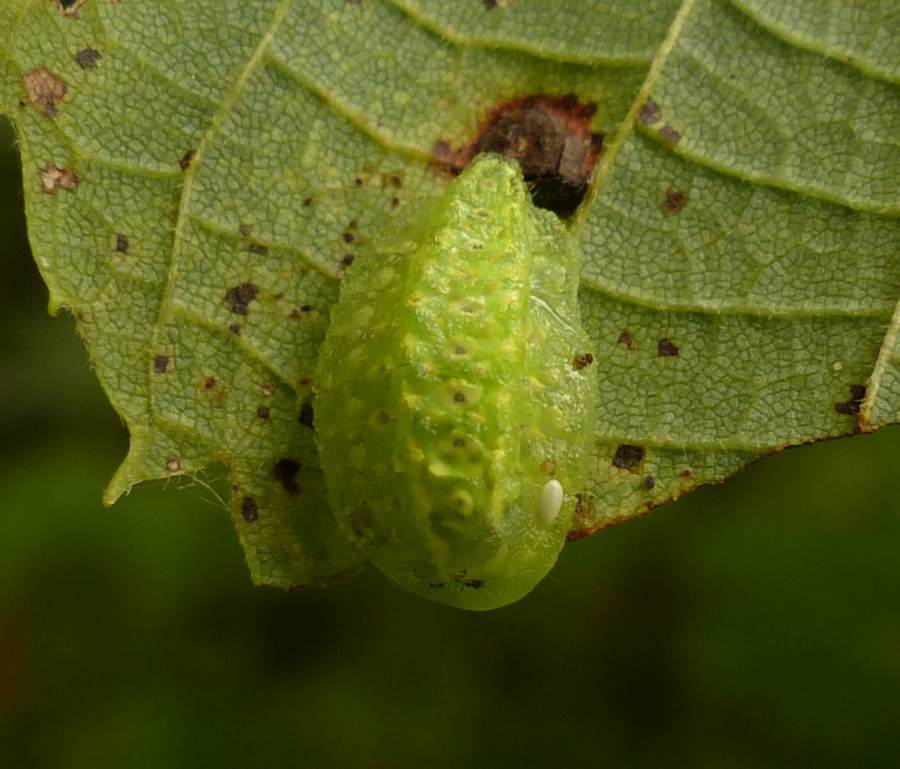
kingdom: Animalia
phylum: Arthropoda
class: Insecta
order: Lepidoptera
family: Limacodidae
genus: Lithacodes
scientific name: Lithacodes fasciola
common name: Yellow-shouldered slug moth
